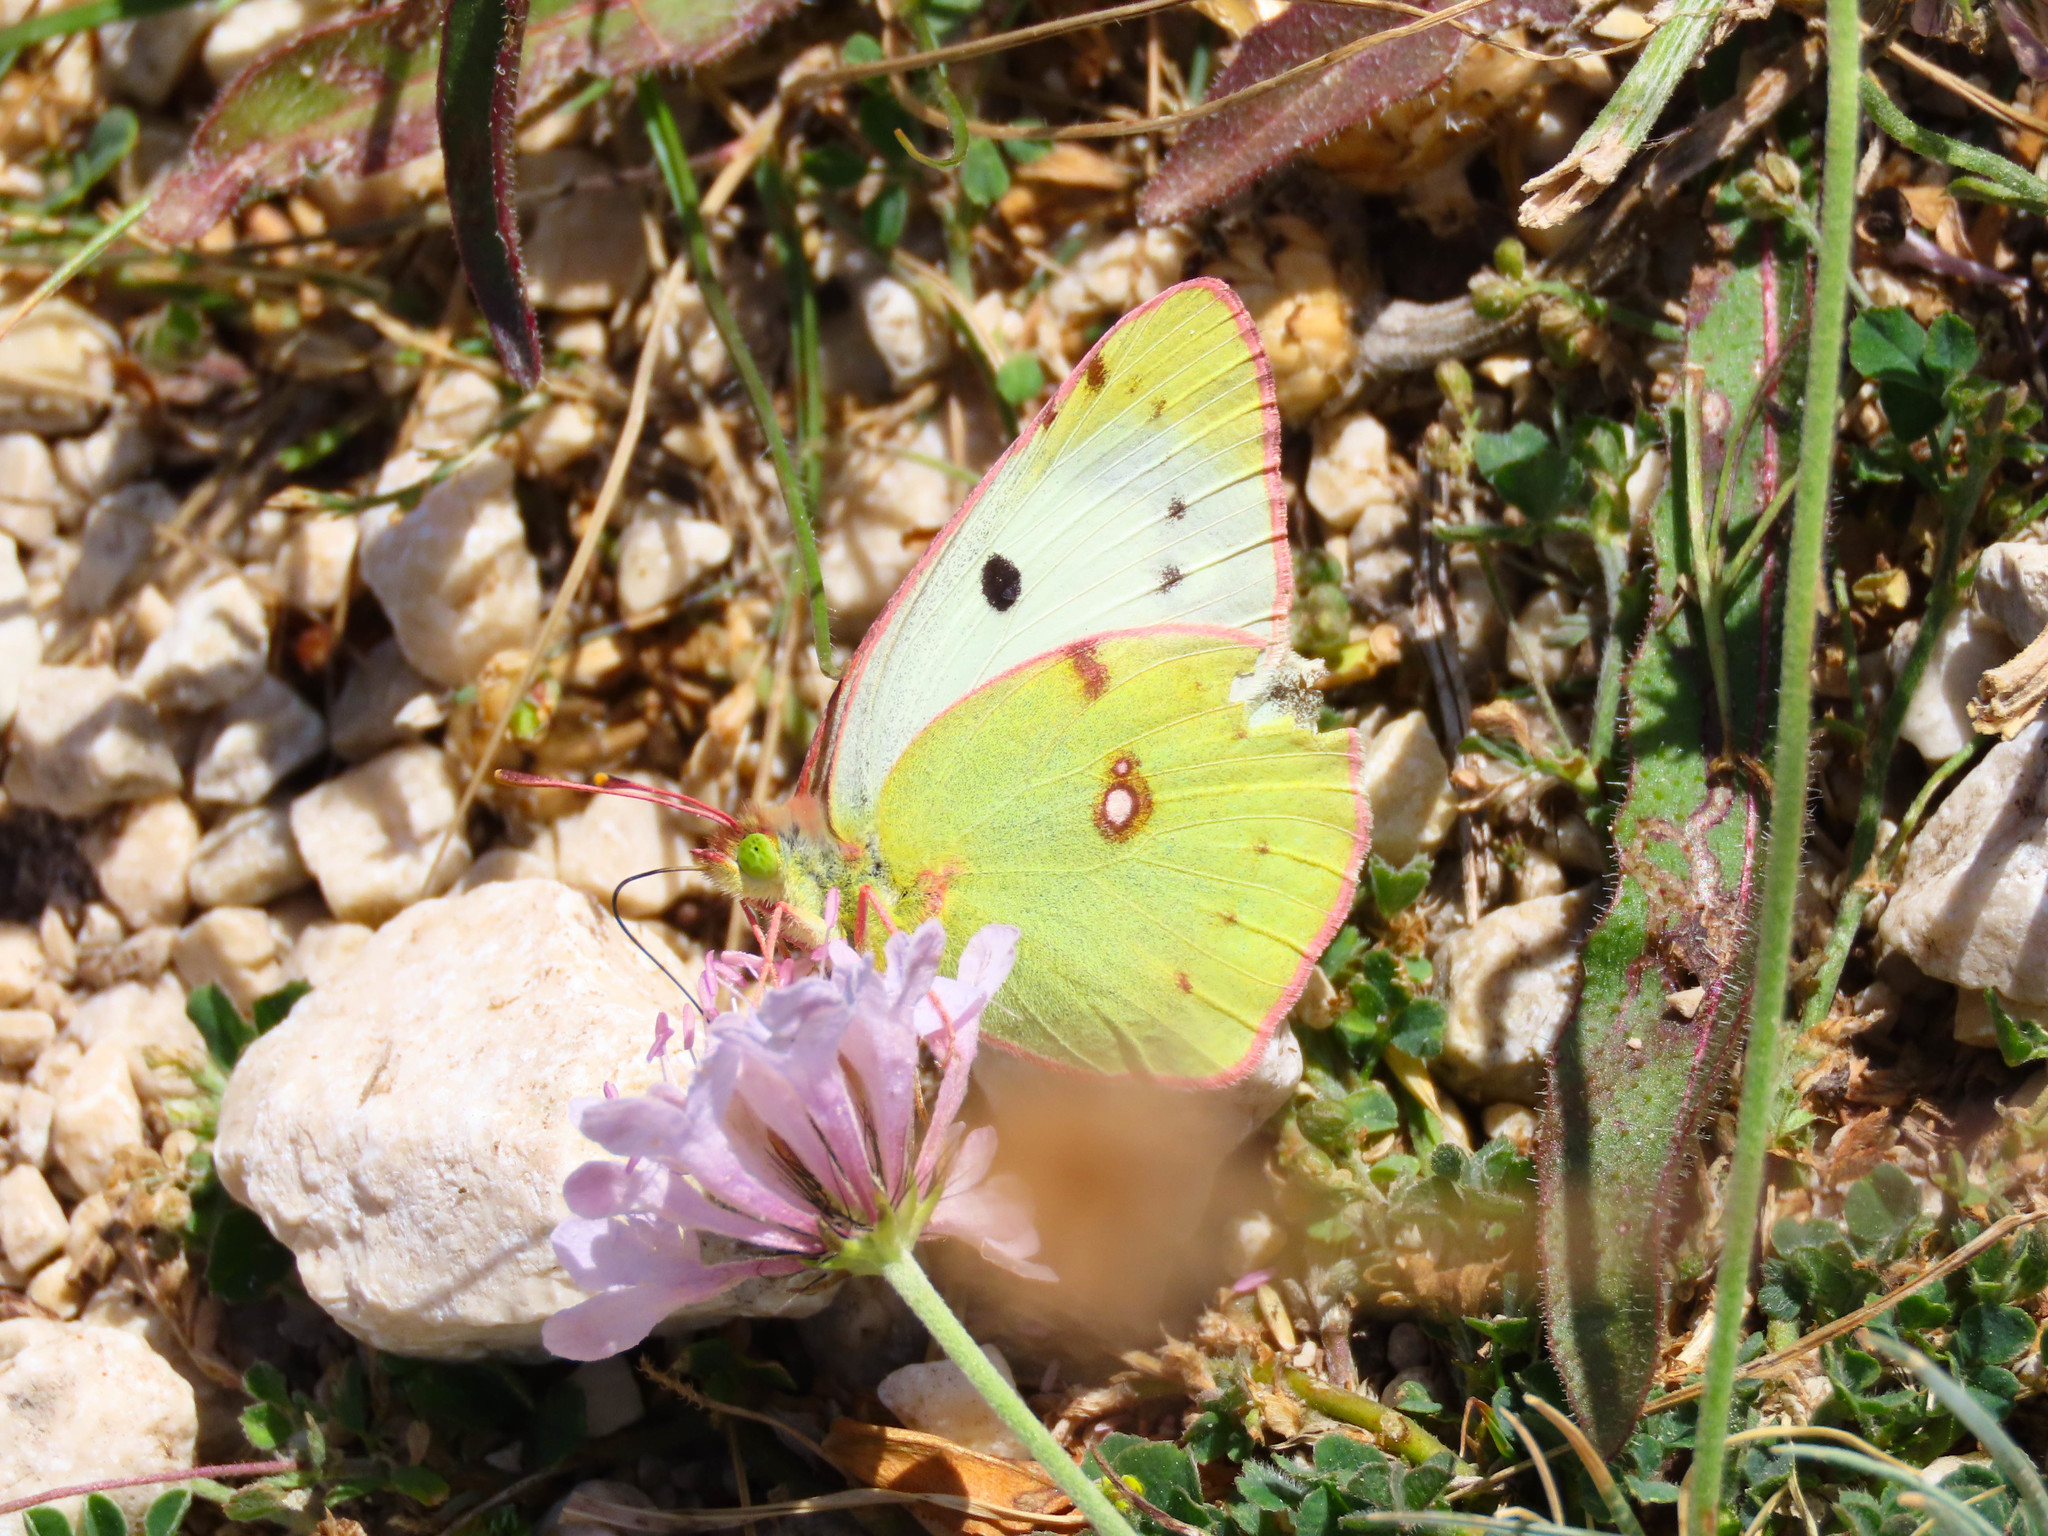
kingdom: Animalia
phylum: Arthropoda
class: Insecta
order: Lepidoptera
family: Pieridae
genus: Colias
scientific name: Colias alfacariensis
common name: Berger's clouded yellow
